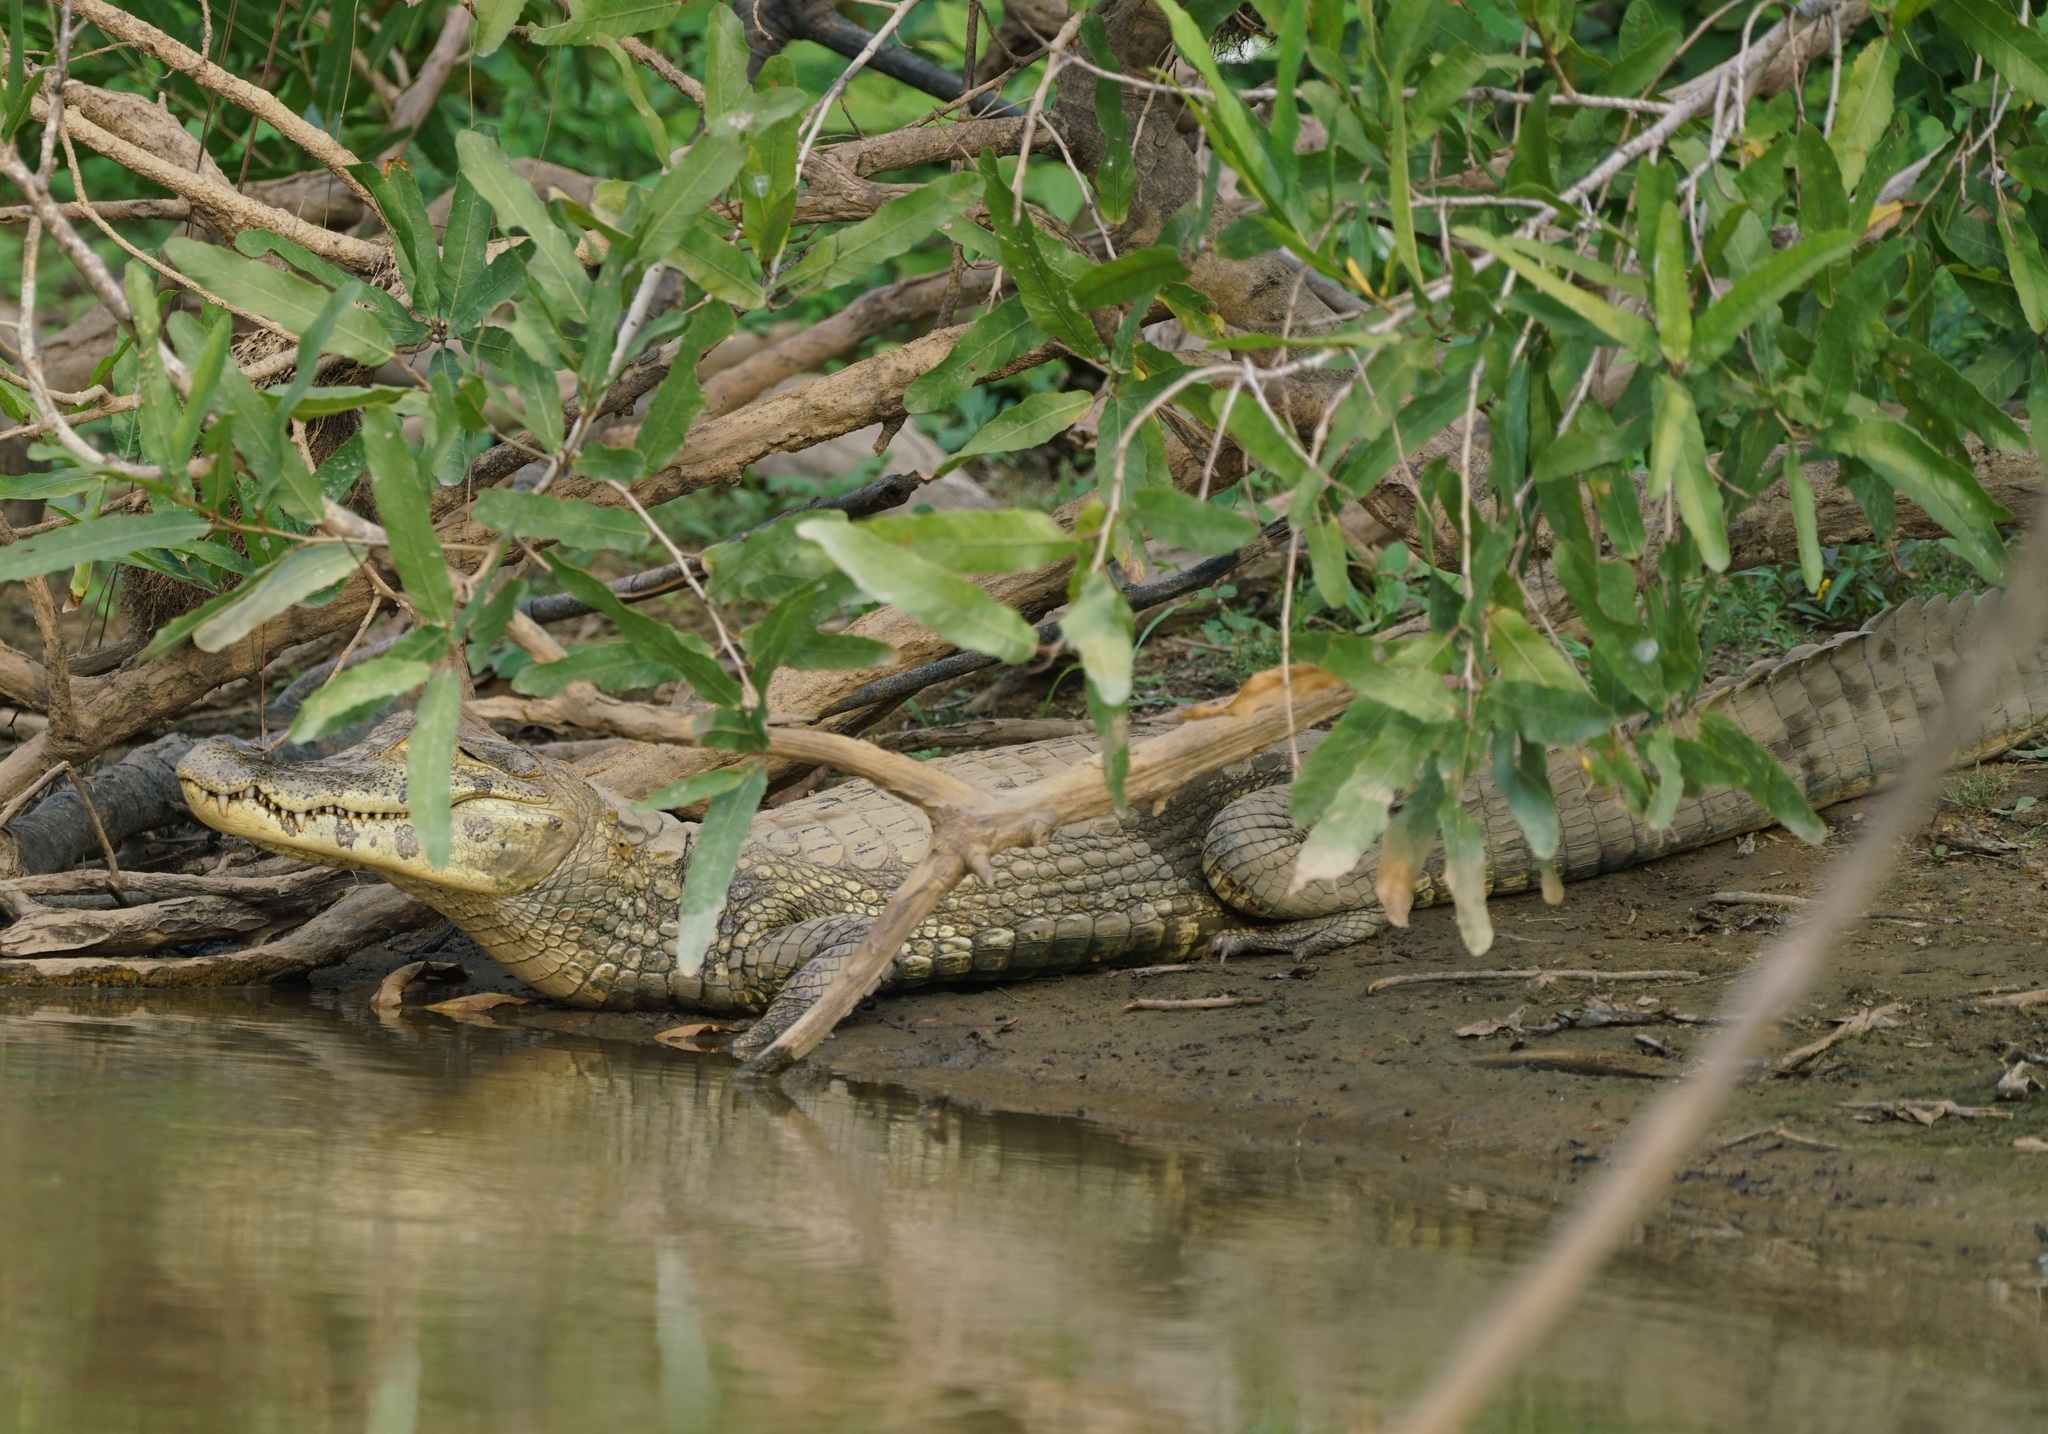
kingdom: Animalia
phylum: Chordata
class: Crocodylia
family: Alligatoridae
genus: Caiman
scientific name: Caiman yacare
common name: Yacare caiman
